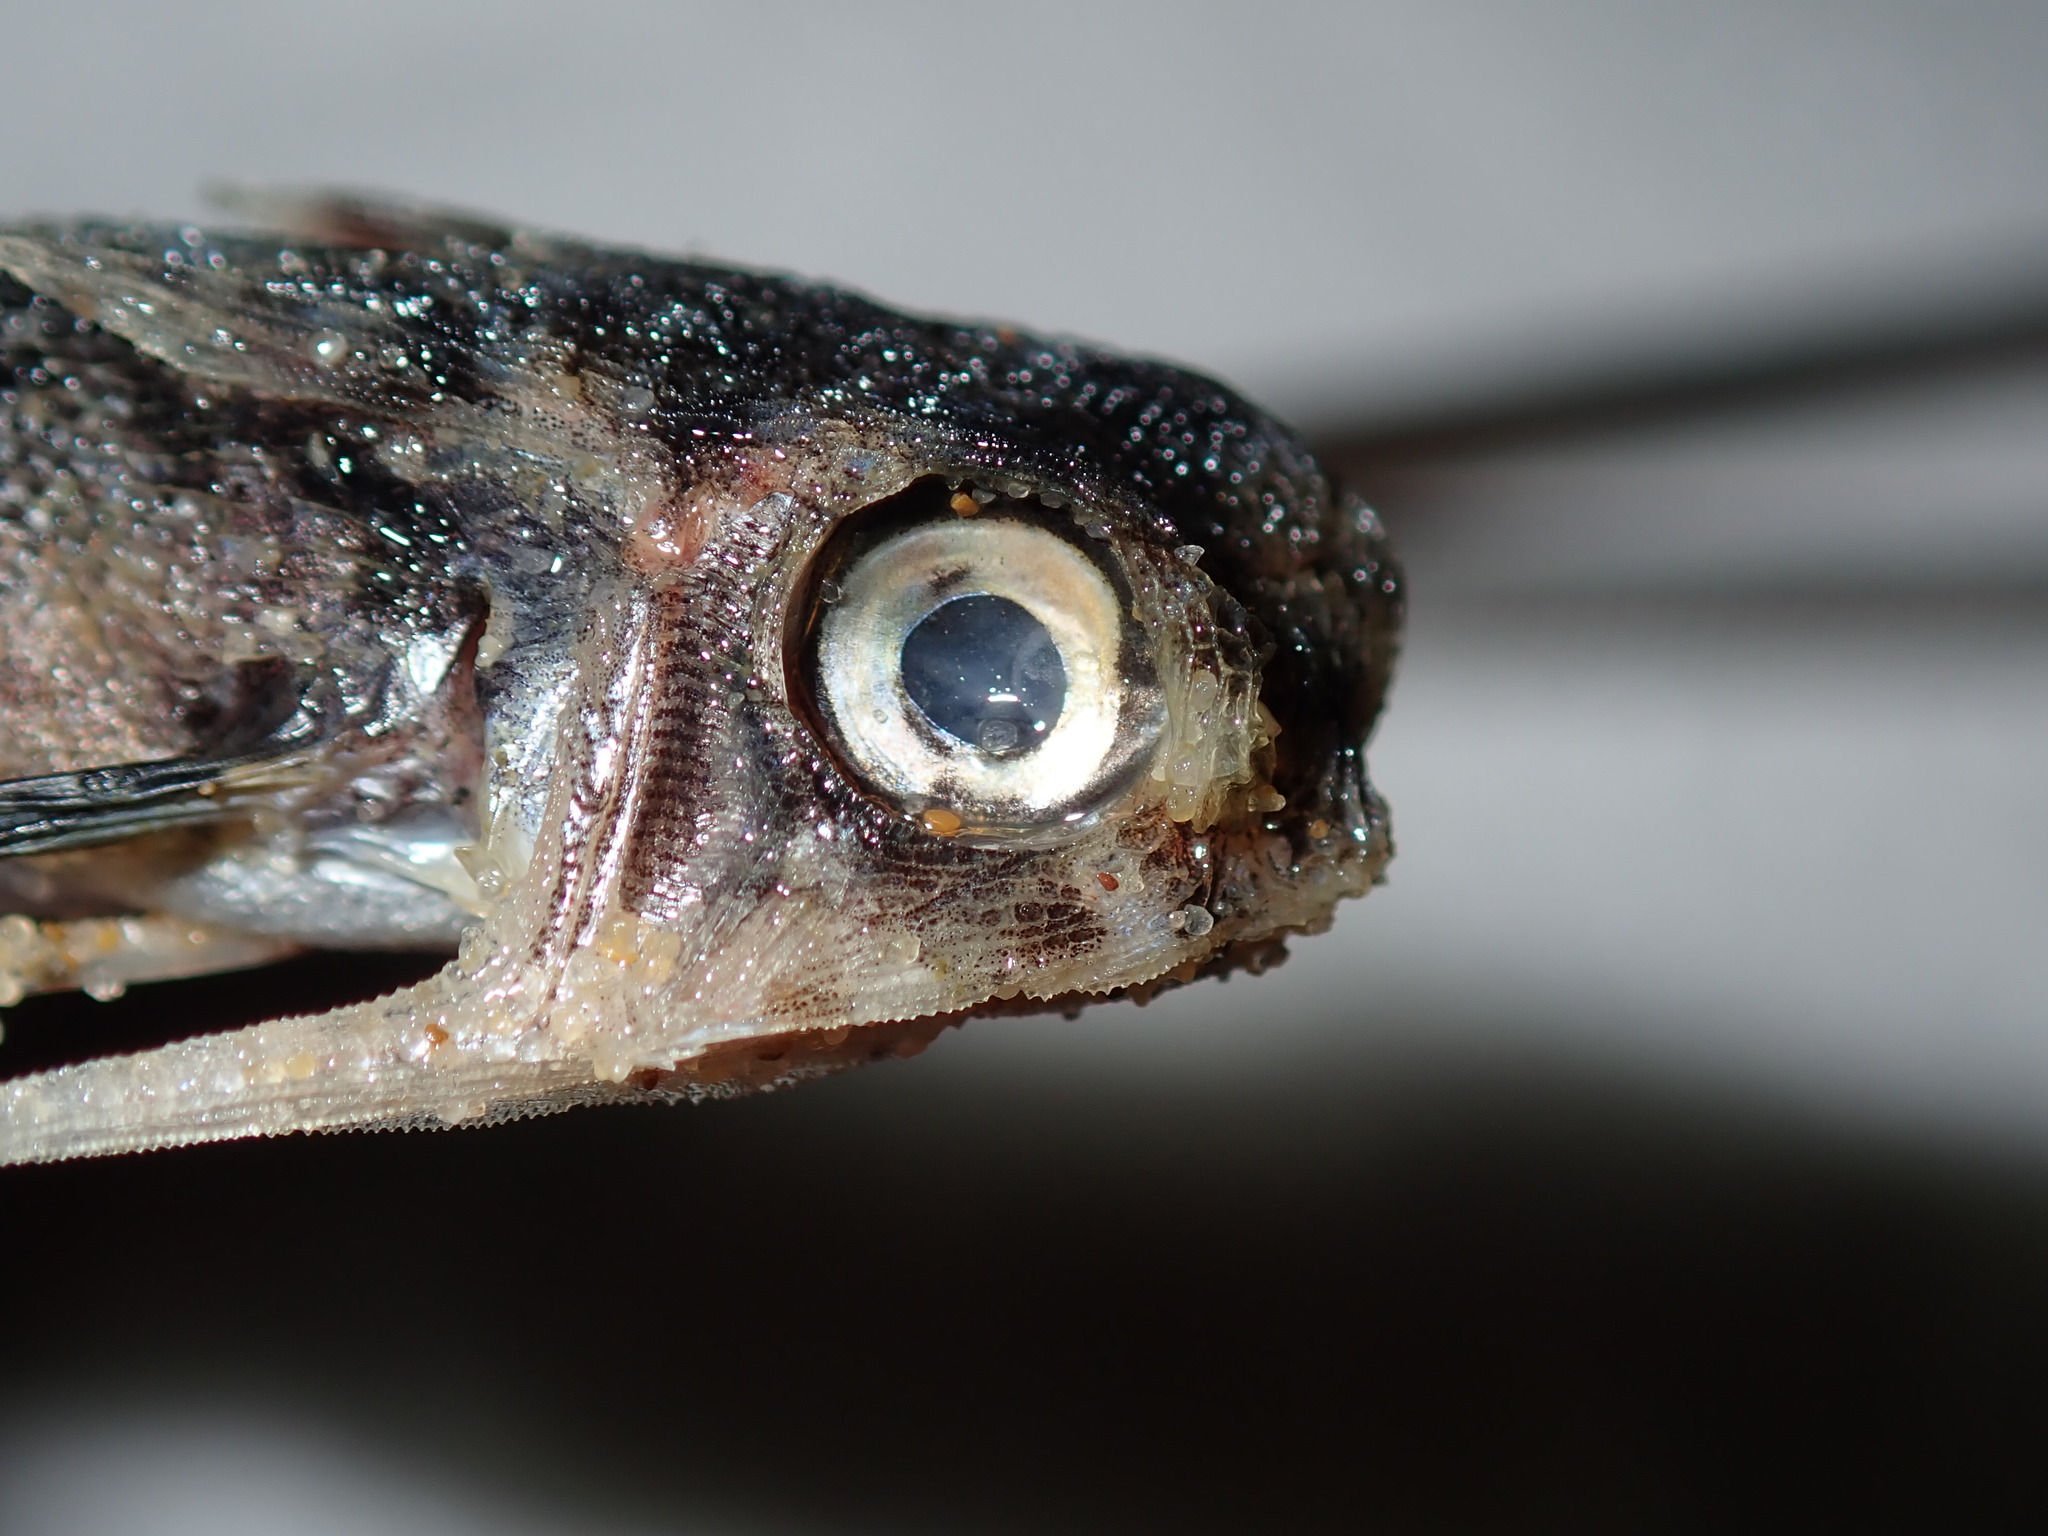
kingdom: Animalia
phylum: Chordata
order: Scorpaeniformes
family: Dactylopteridae
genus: Dactyloptena
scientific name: Dactyloptena orientalis
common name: Flying gurnard
